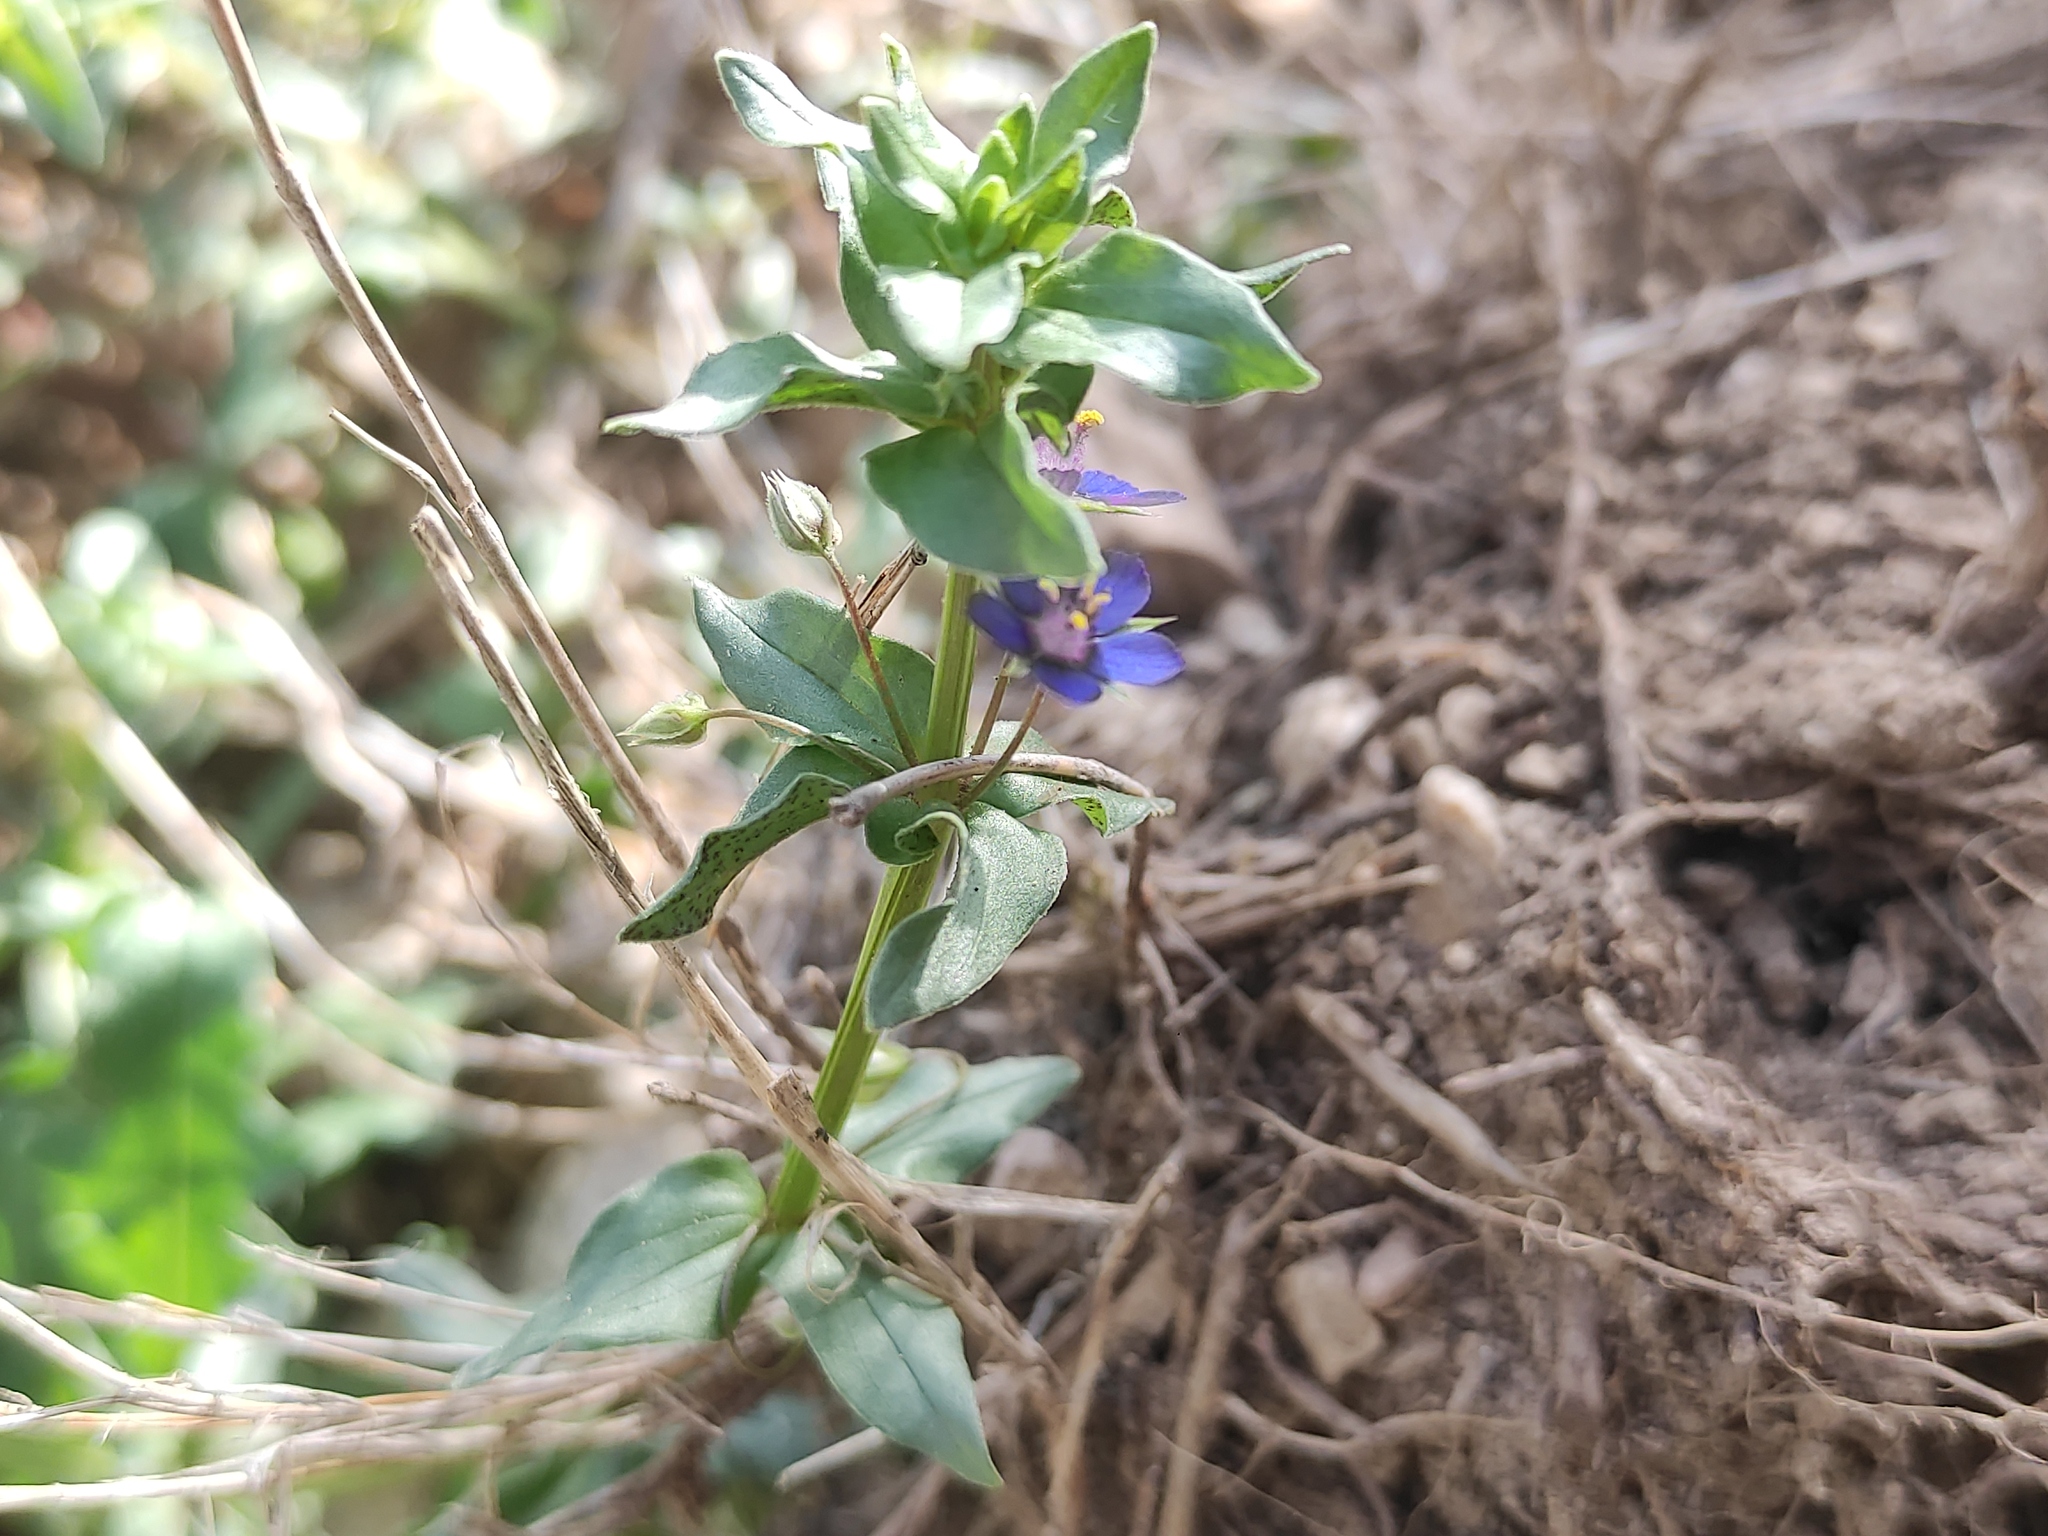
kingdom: Plantae
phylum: Tracheophyta
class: Magnoliopsida
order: Ericales
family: Primulaceae
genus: Lysimachia
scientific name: Lysimachia foemina
